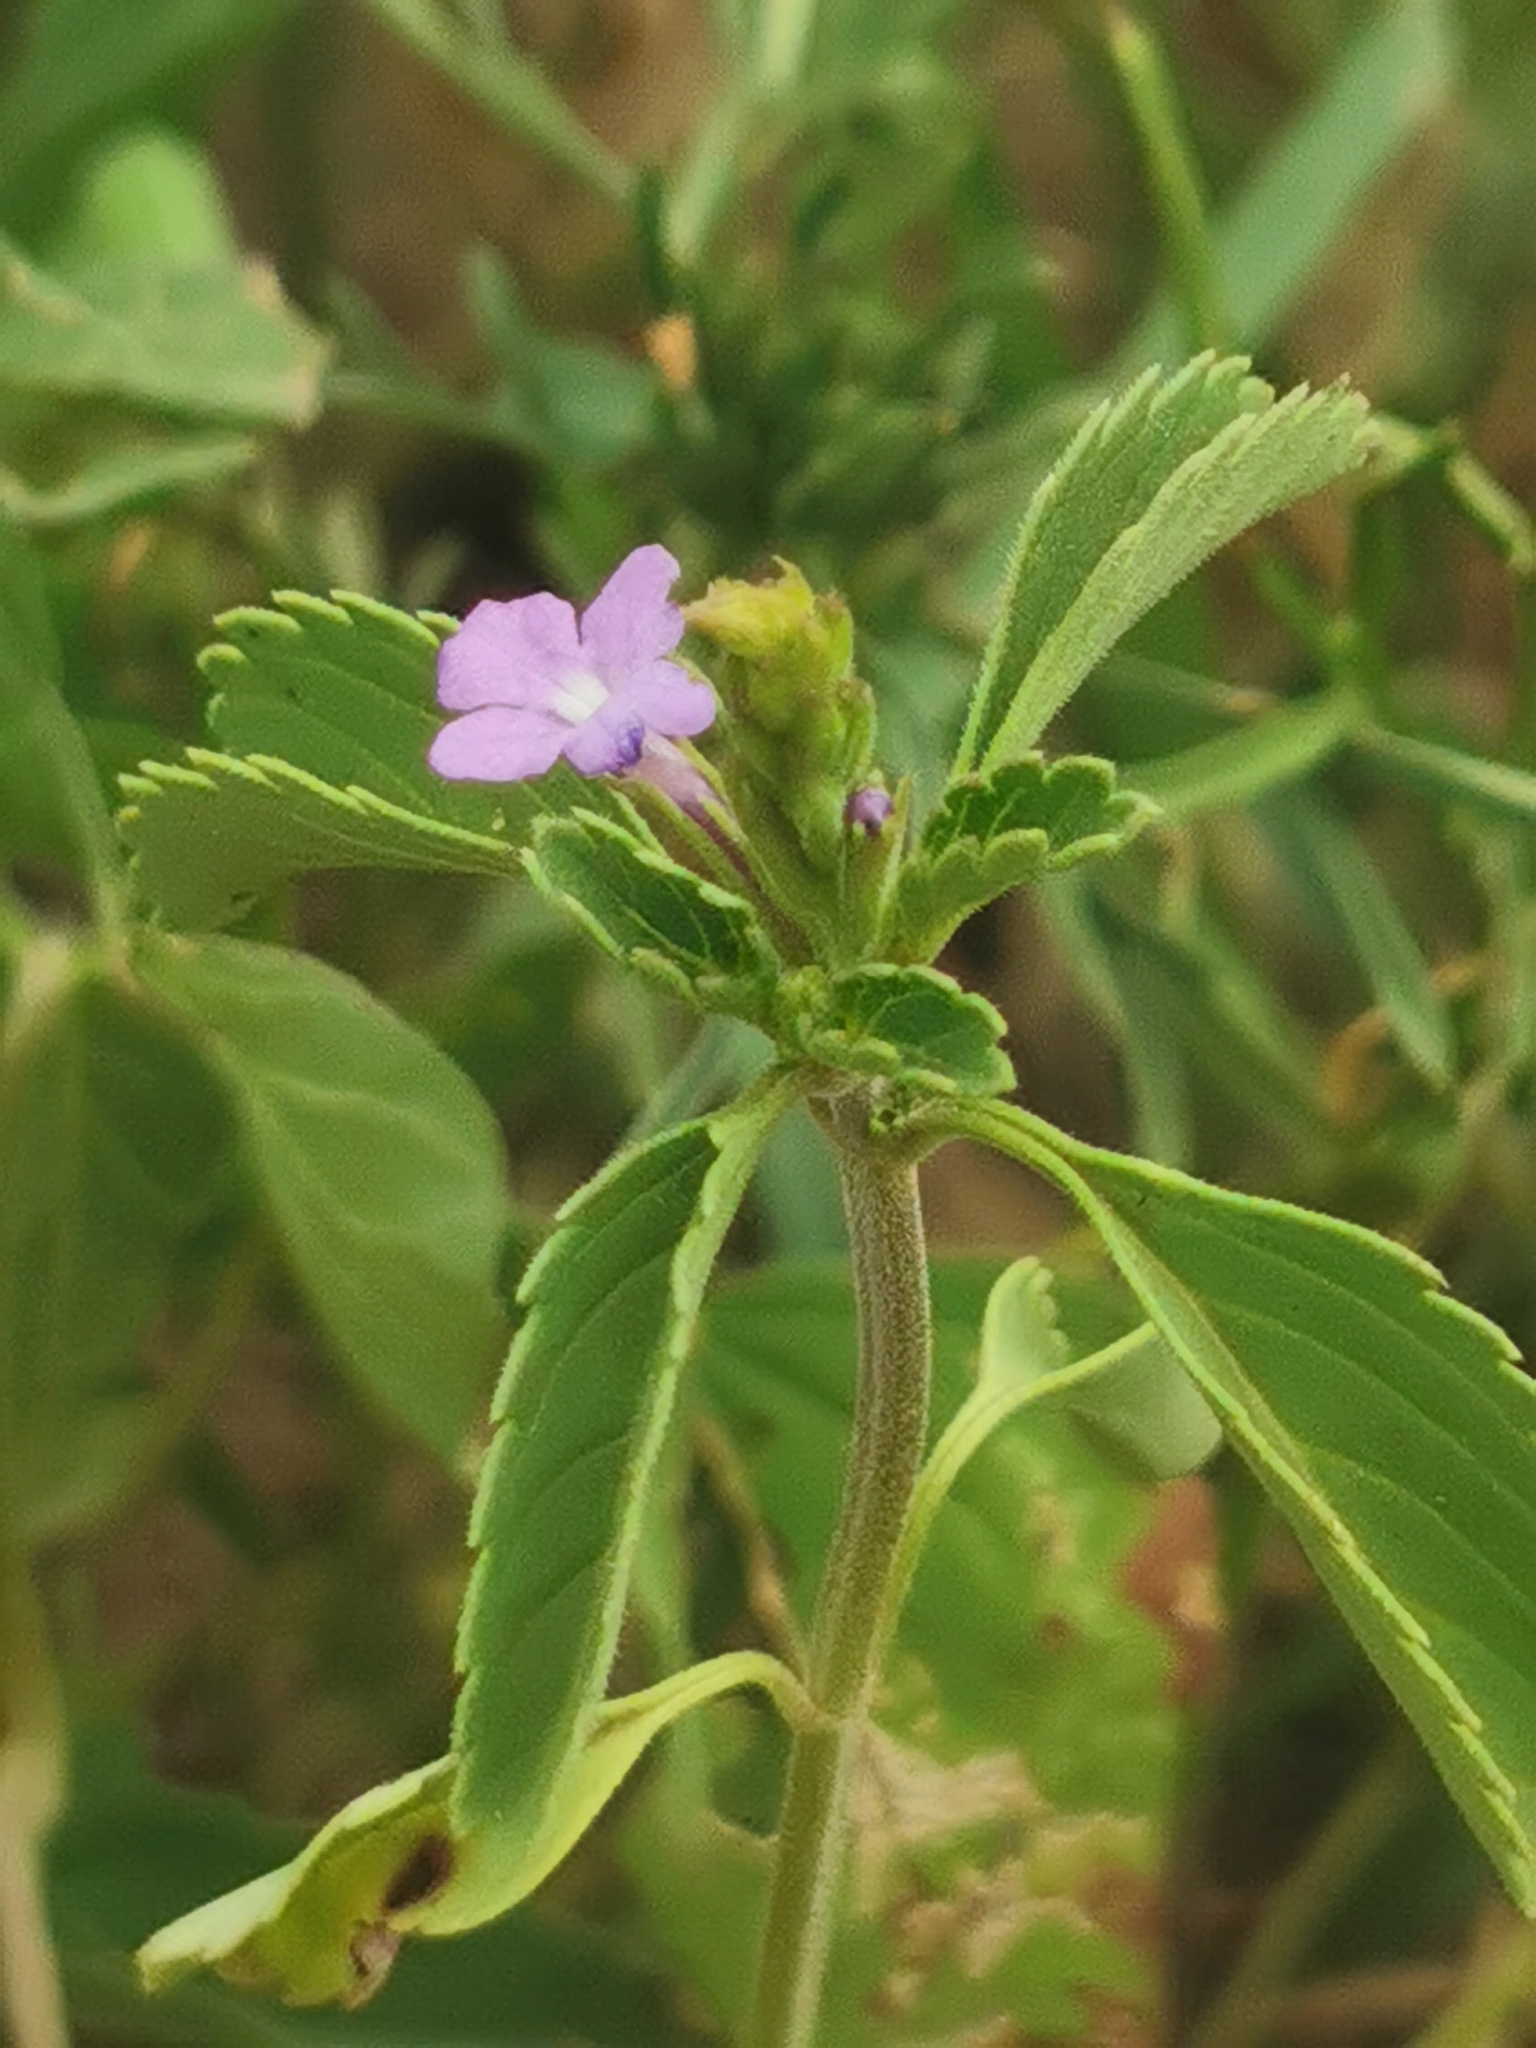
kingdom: Plantae
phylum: Tracheophyta
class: Magnoliopsida
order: Lamiales
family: Verbenaceae
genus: Bouchea
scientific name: Bouchea prismatica
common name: Vervine
